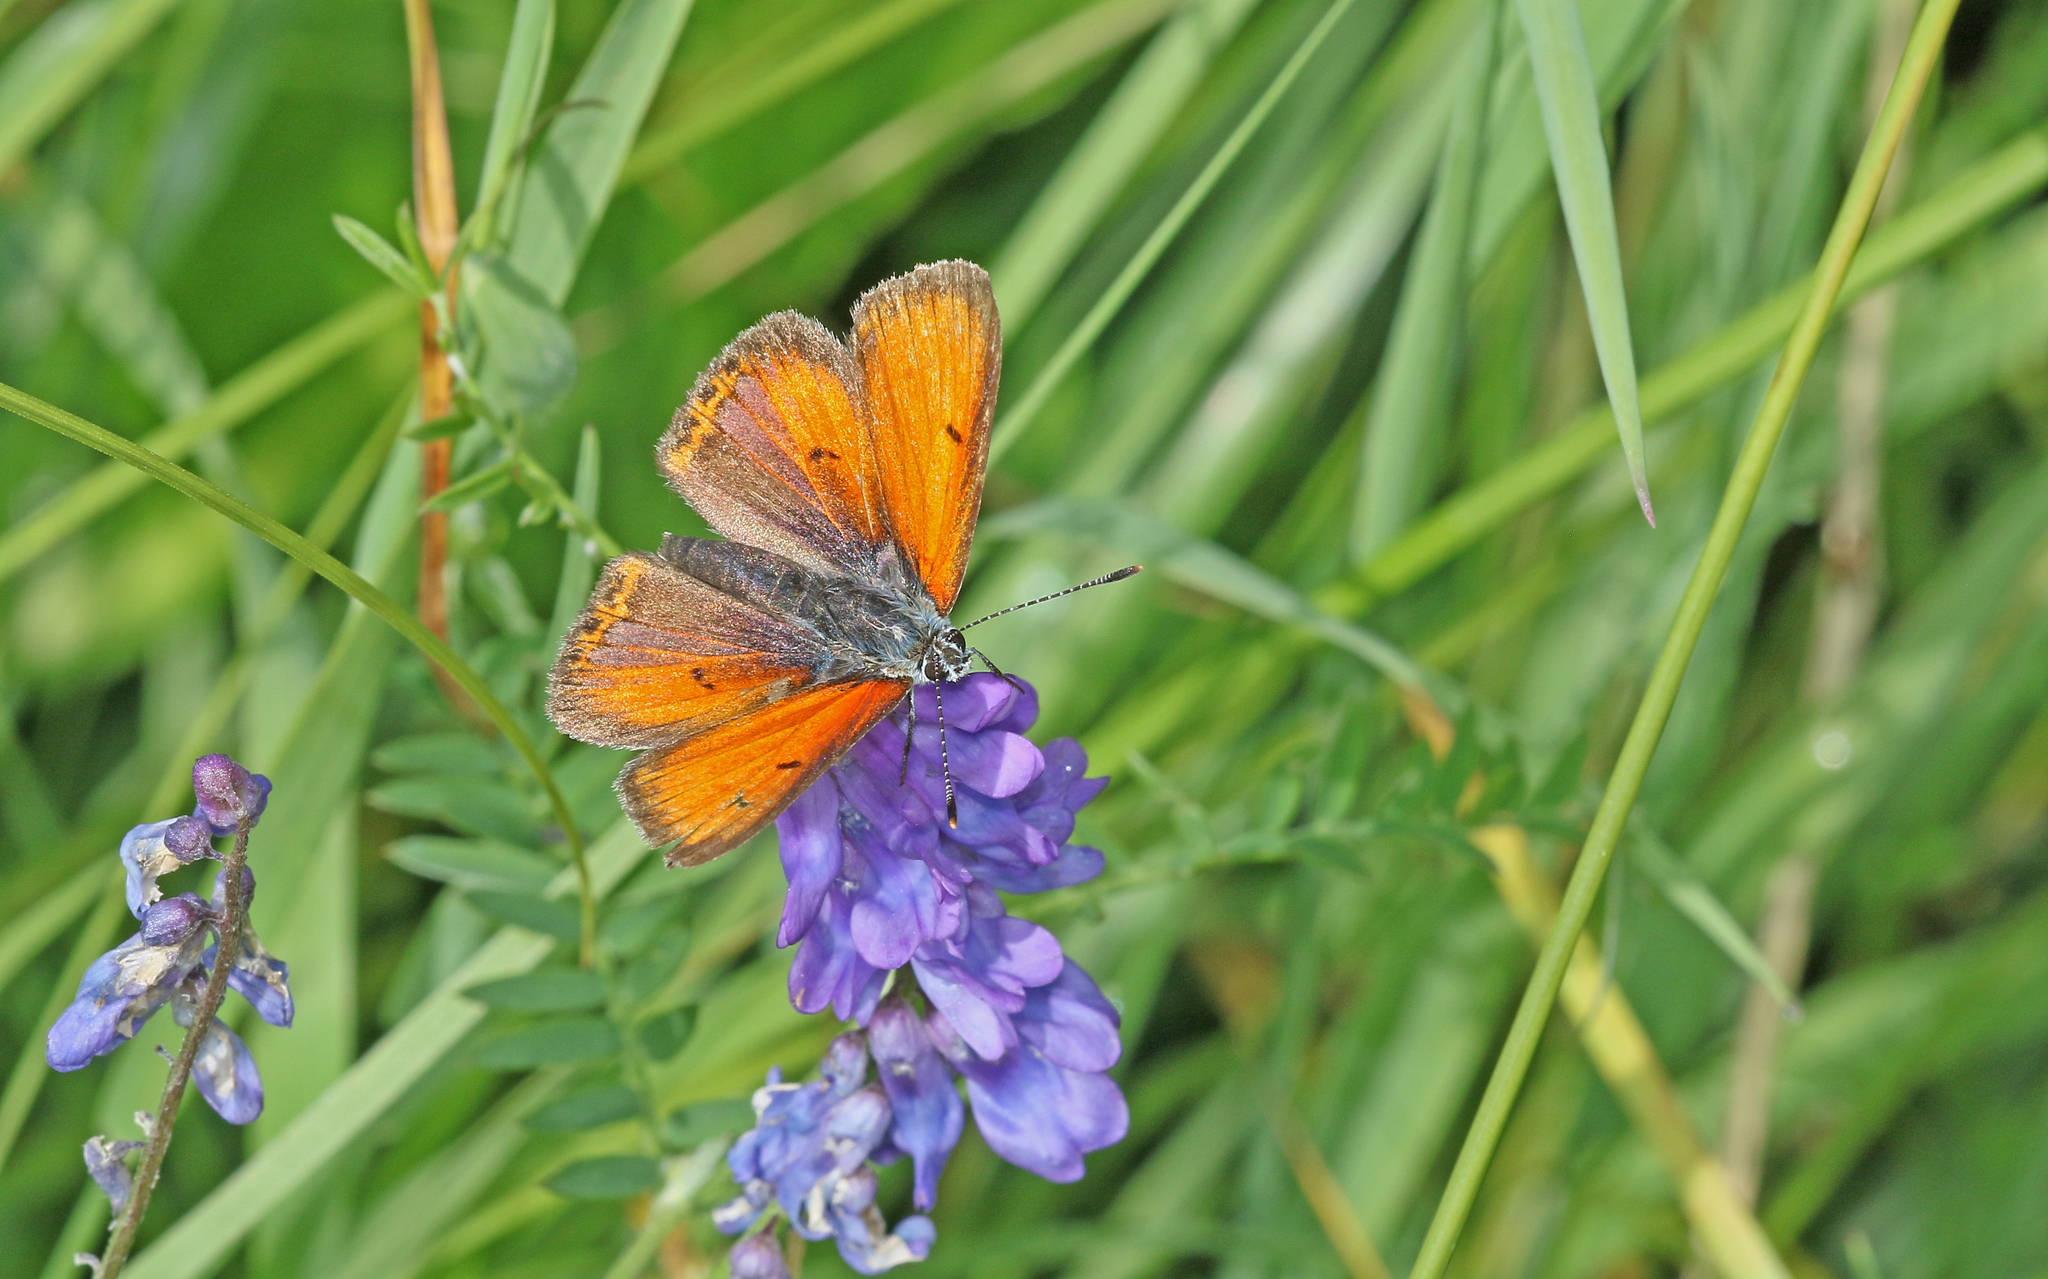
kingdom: Animalia
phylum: Arthropoda
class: Insecta
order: Lepidoptera
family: Lycaenidae
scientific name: Lycaenidae
